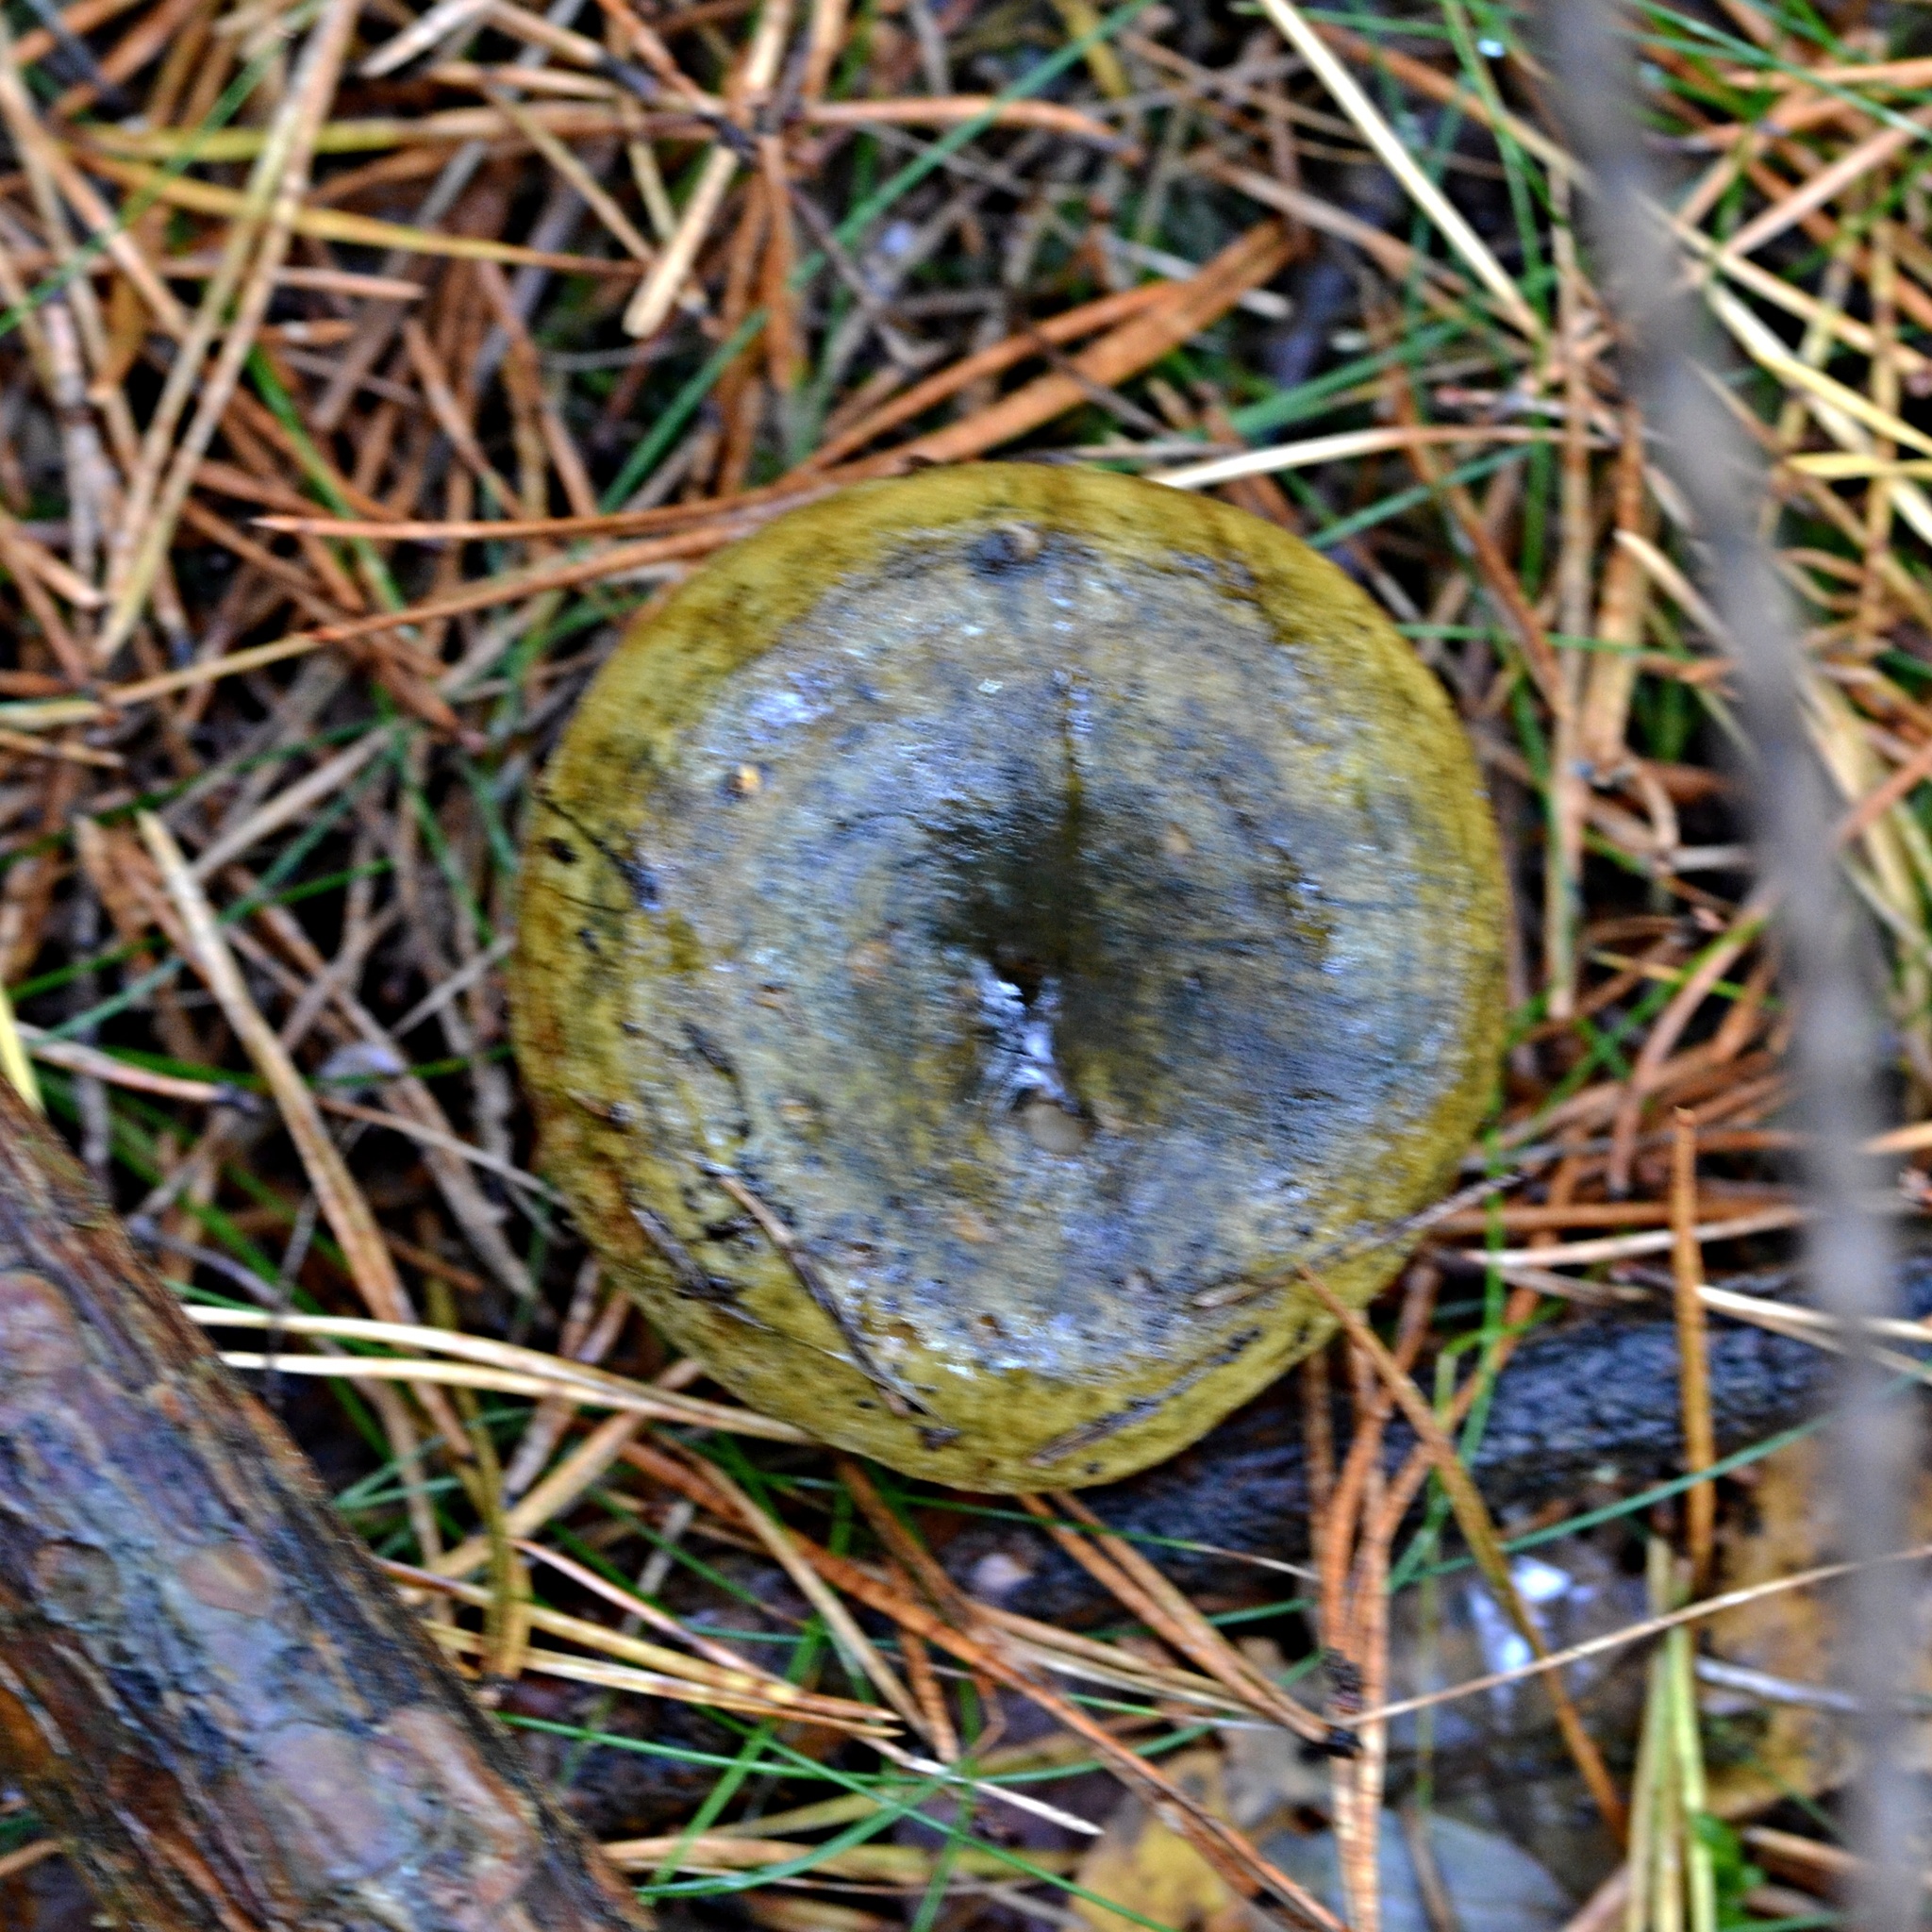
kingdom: Fungi
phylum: Basidiomycota
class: Agaricomycetes
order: Russulales
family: Russulaceae
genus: Lactarius
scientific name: Lactarius turpis
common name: Ugly milk-cap
